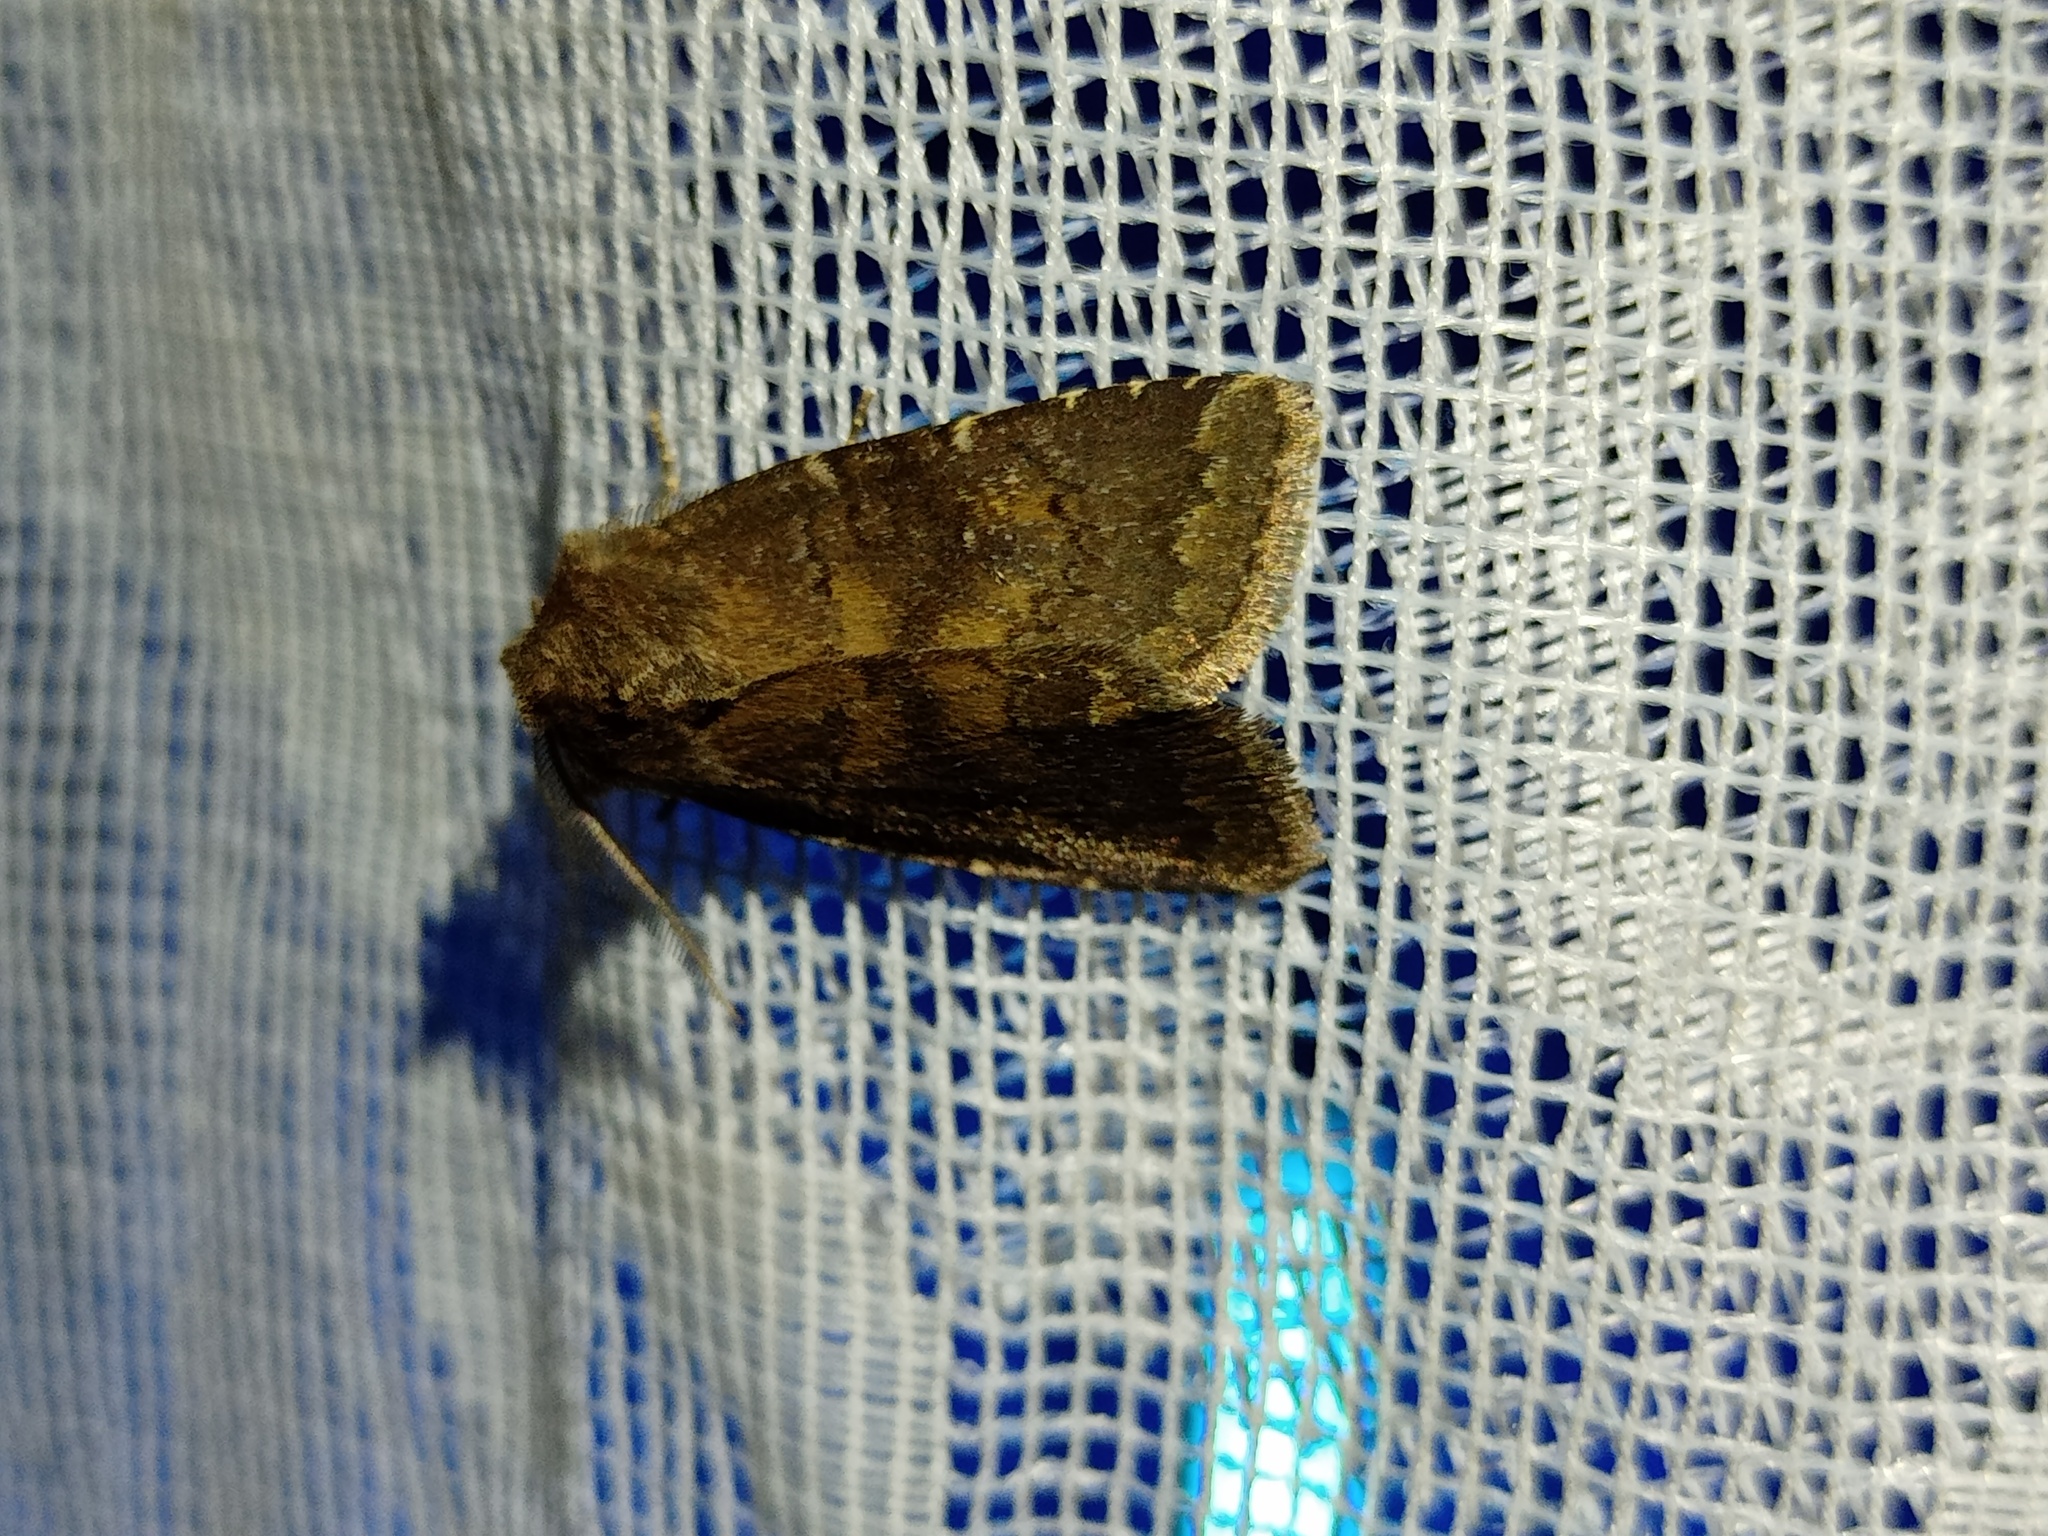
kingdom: Animalia
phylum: Arthropoda
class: Insecta
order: Lepidoptera
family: Noctuidae
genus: Charanyca
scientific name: Charanyca ferruginea
